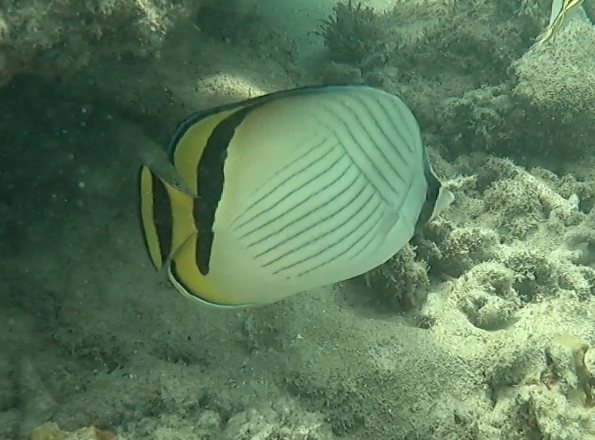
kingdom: Animalia
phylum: Chordata
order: Perciformes
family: Chaetodontidae
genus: Chaetodon
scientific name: Chaetodon vagabundus
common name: Vagabond butterflyfish
